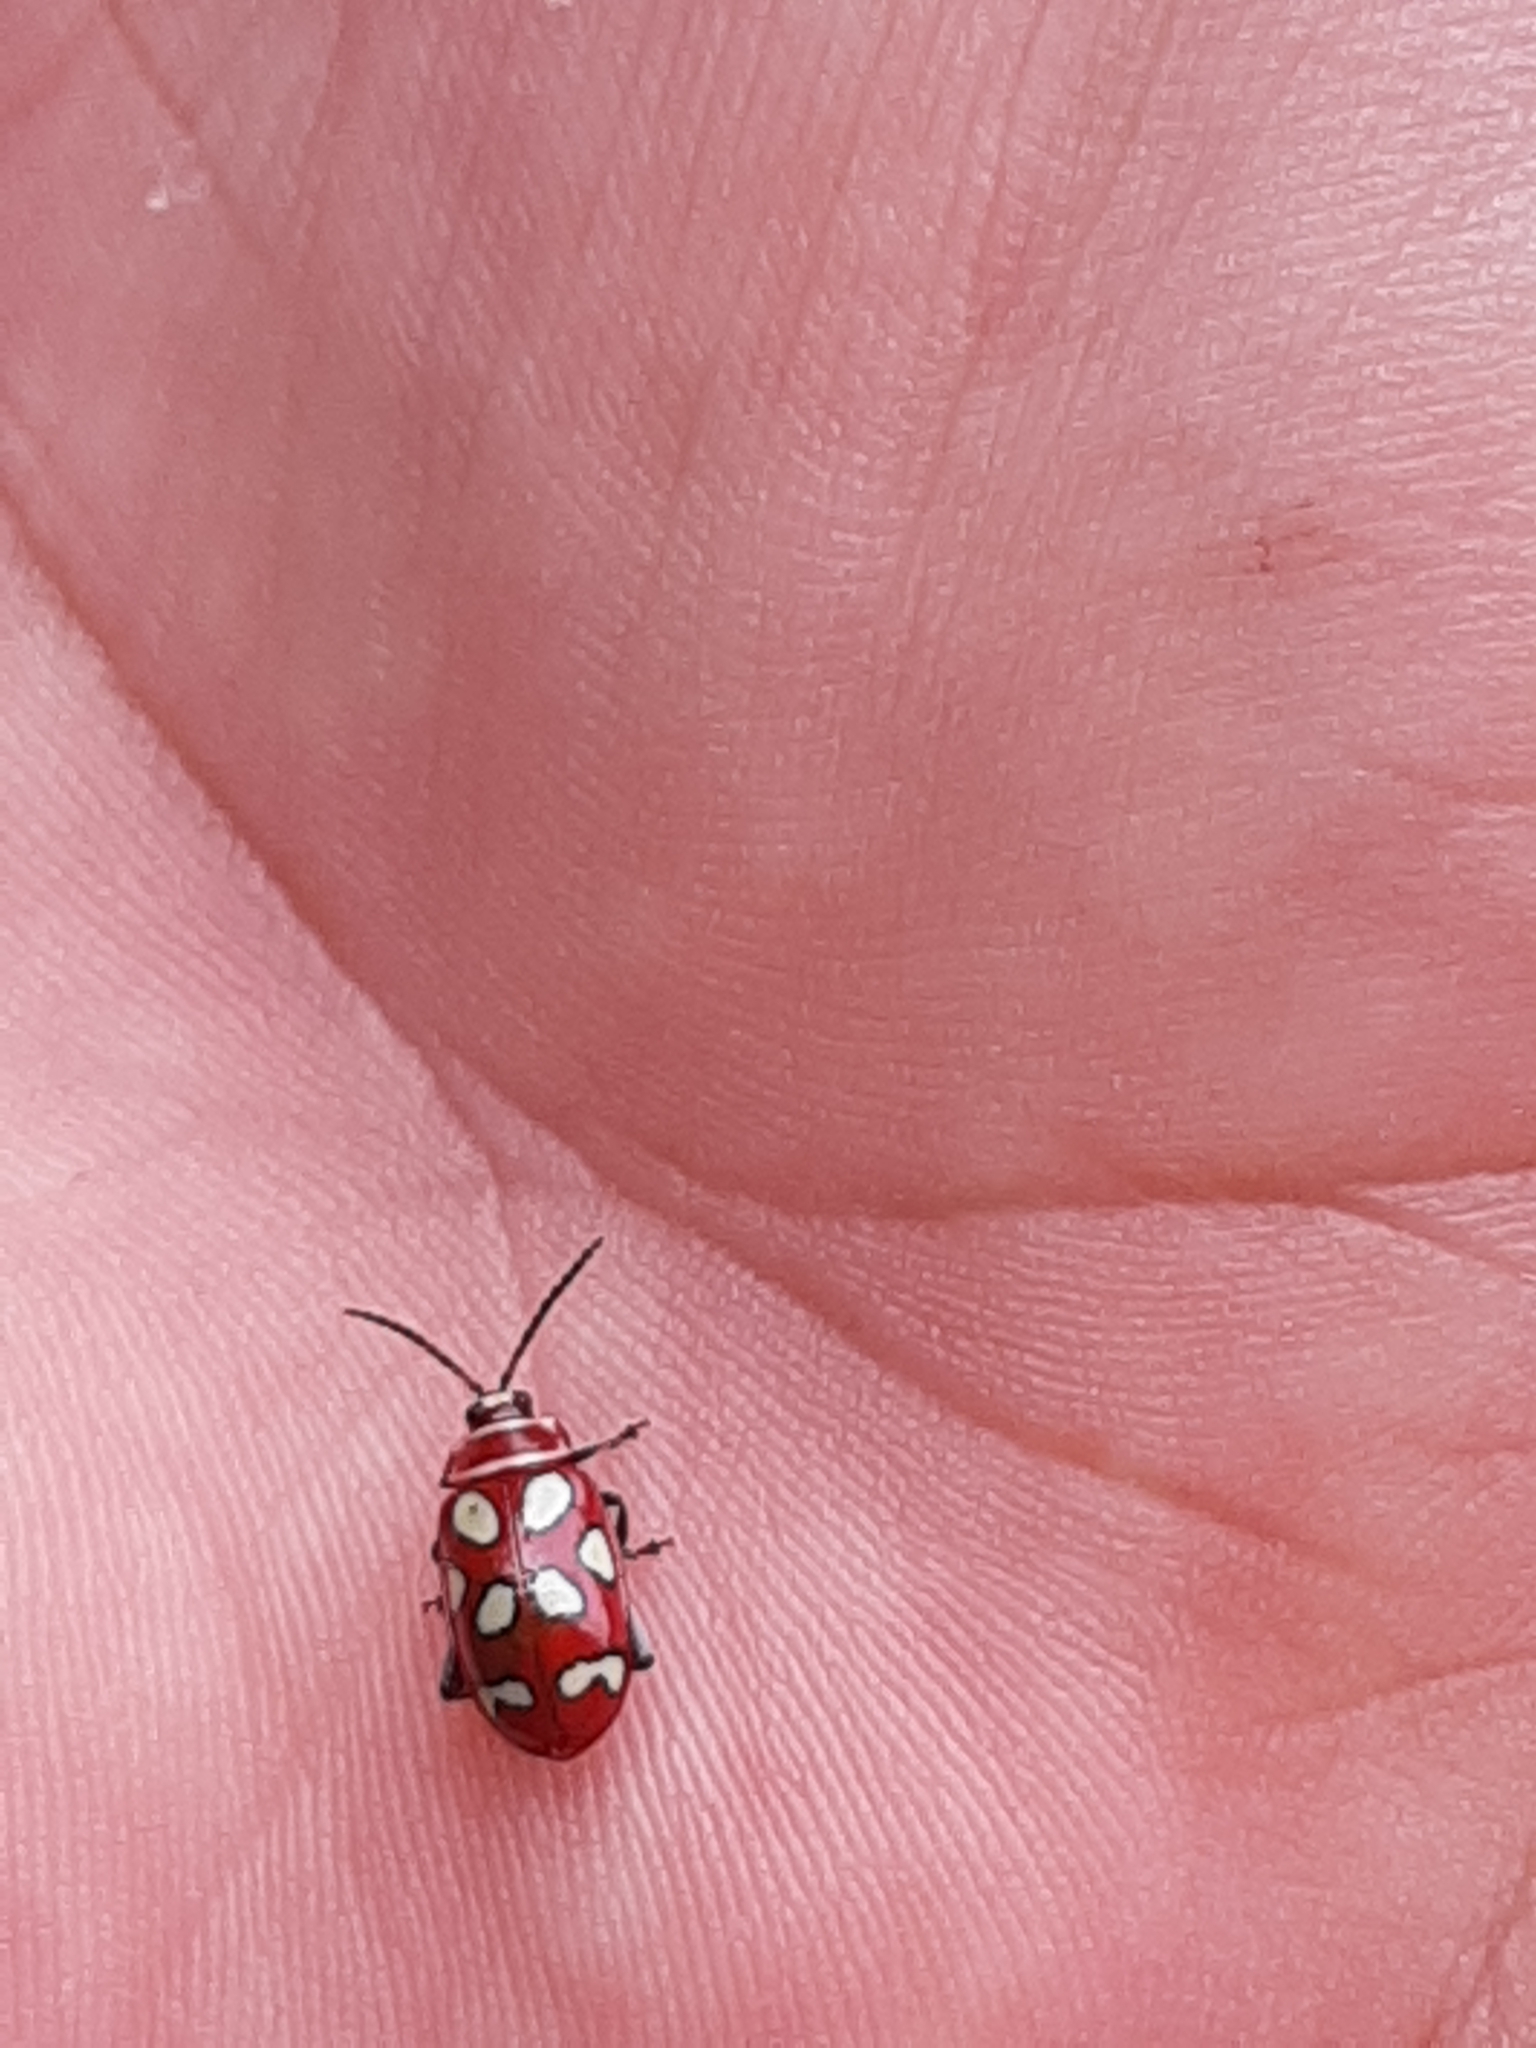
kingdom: Animalia
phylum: Arthropoda
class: Insecta
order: Coleoptera
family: Chrysomelidae
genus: Omophoita
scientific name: Omophoita
